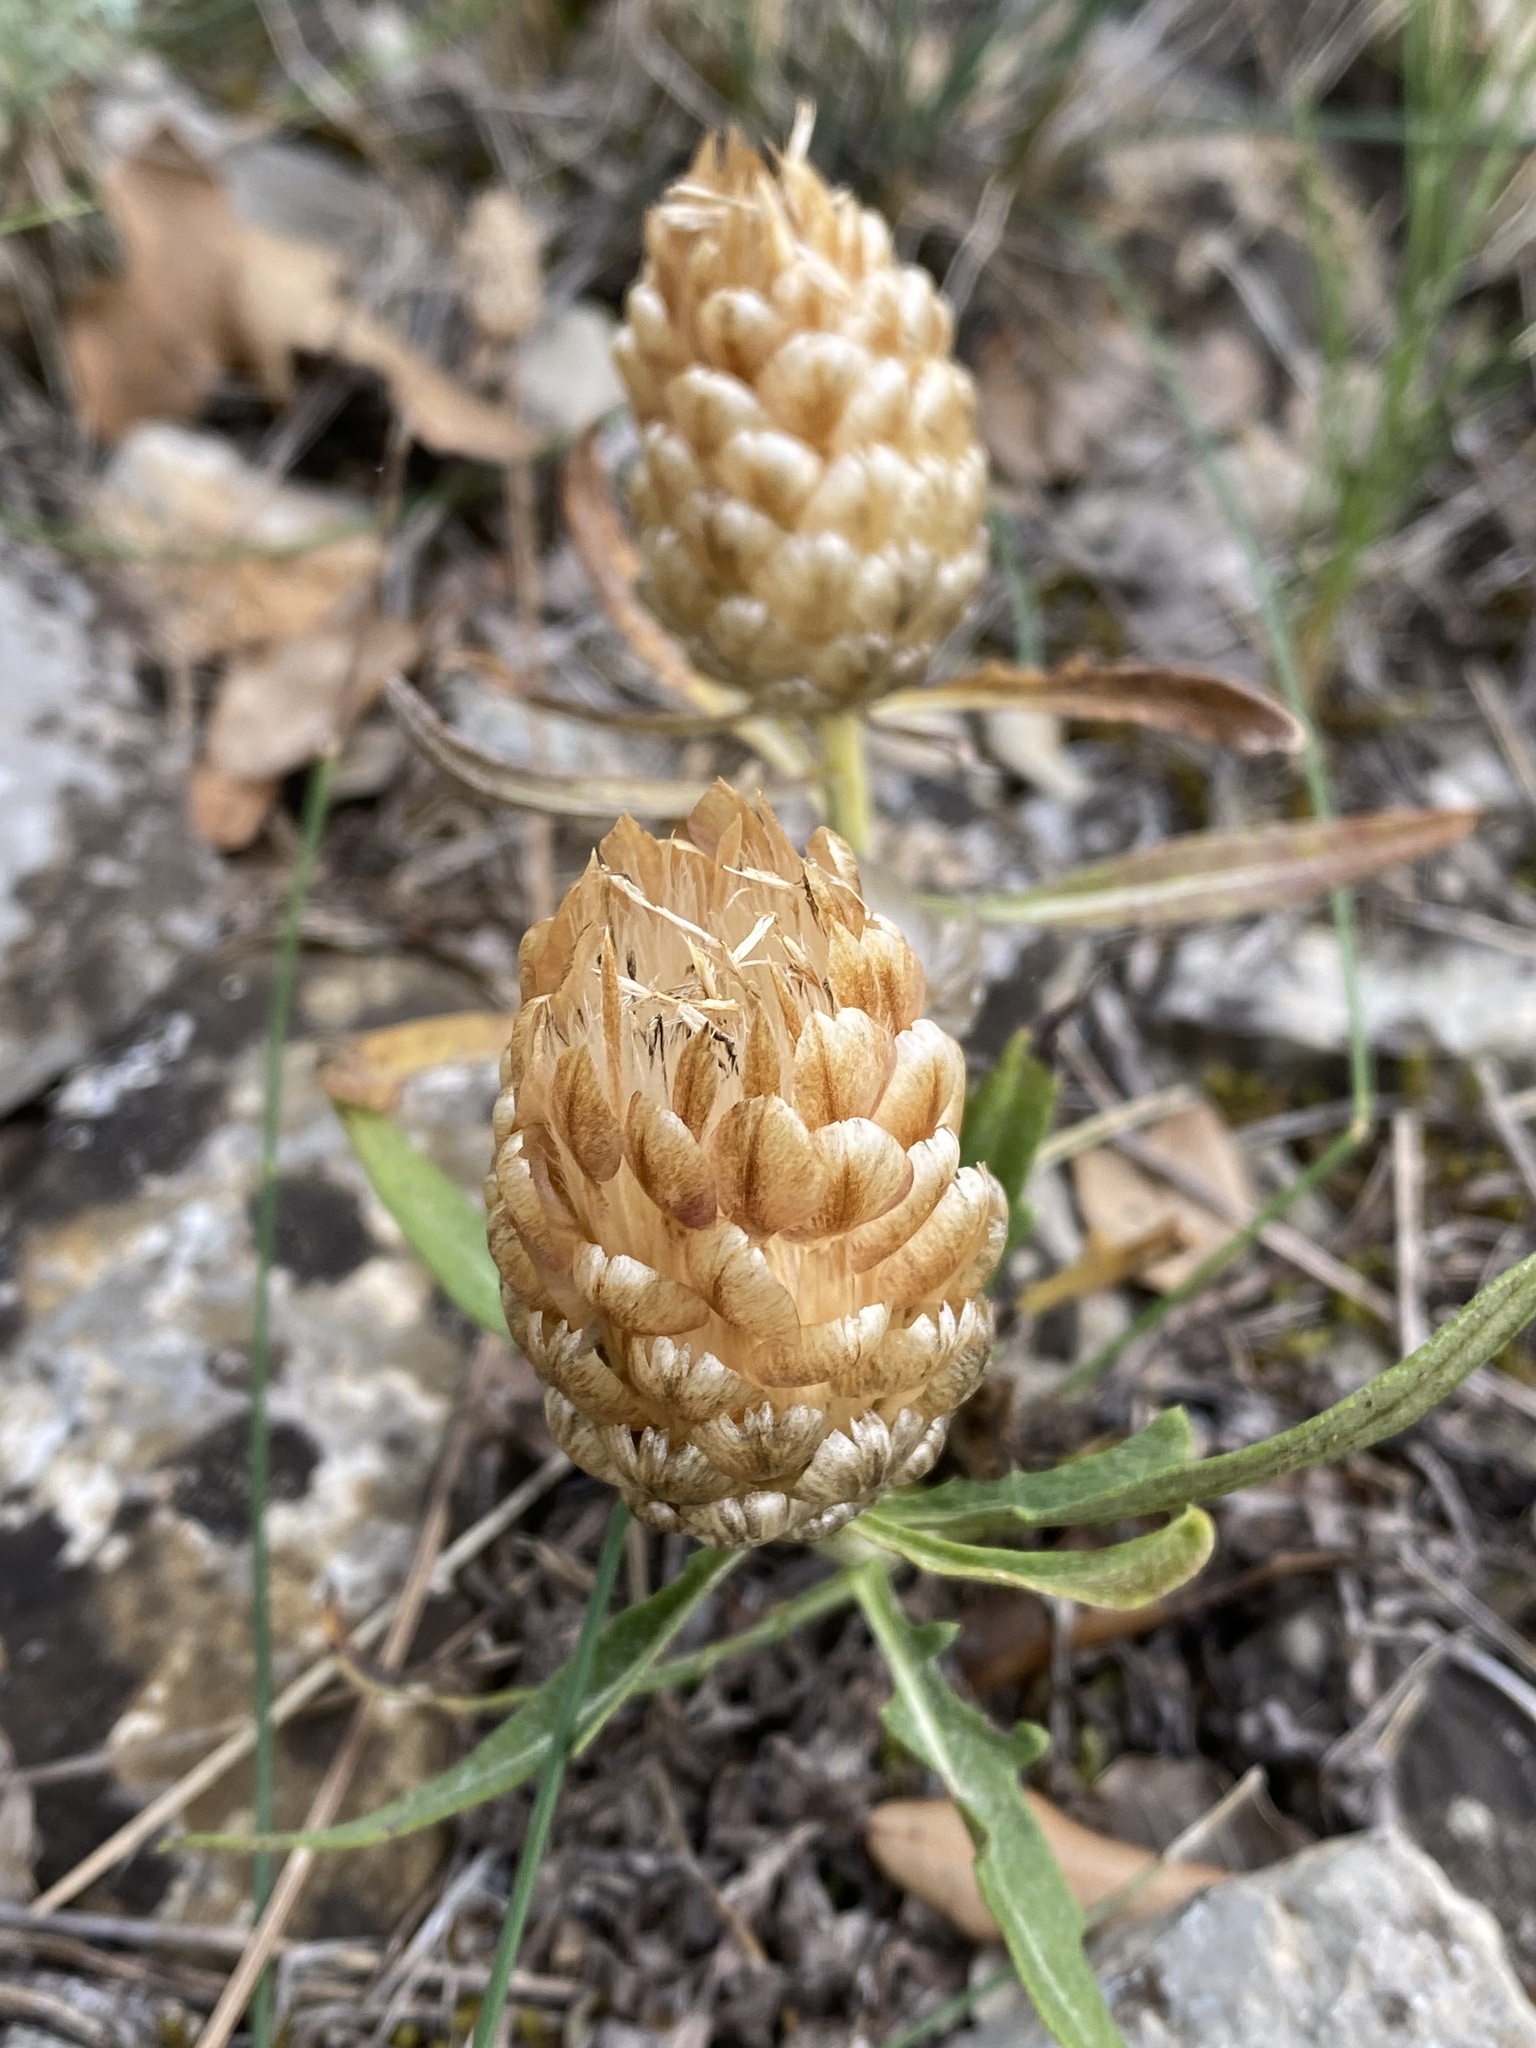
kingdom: Plantae
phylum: Tracheophyta
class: Magnoliopsida
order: Asterales
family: Asteraceae
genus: Leuzea
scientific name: Leuzea conifera
